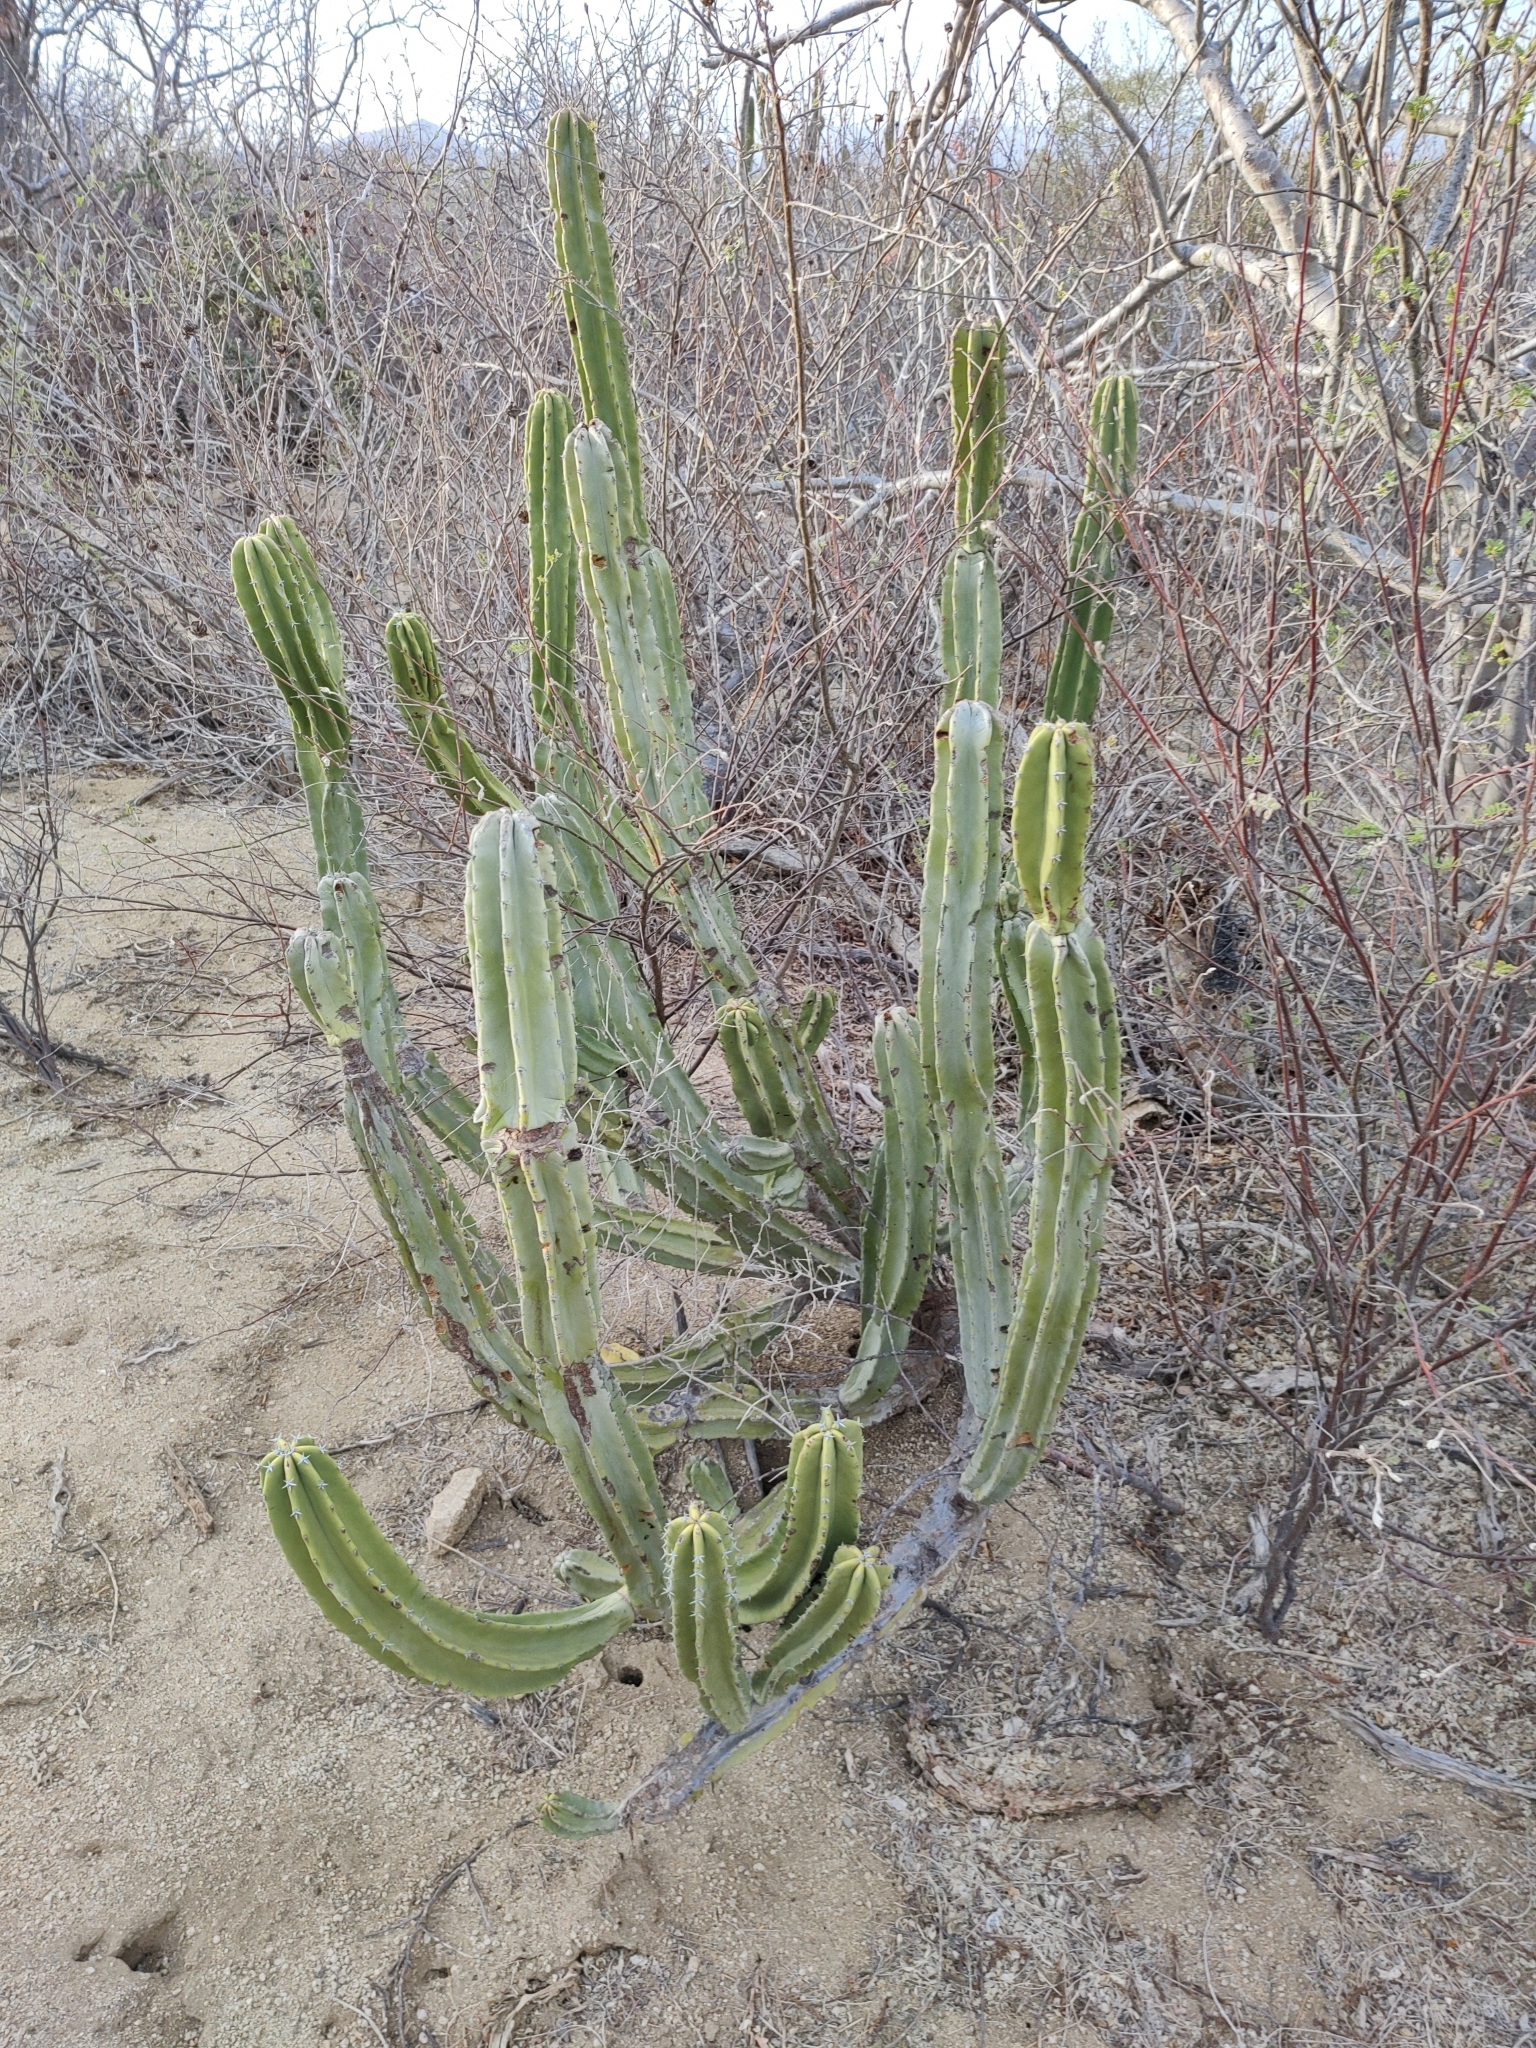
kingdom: Plantae
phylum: Tracheophyta
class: Magnoliopsida
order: Caryophyllales
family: Cactaceae
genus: Pachycereus
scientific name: Pachycereus schottii
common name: Senita cactus
